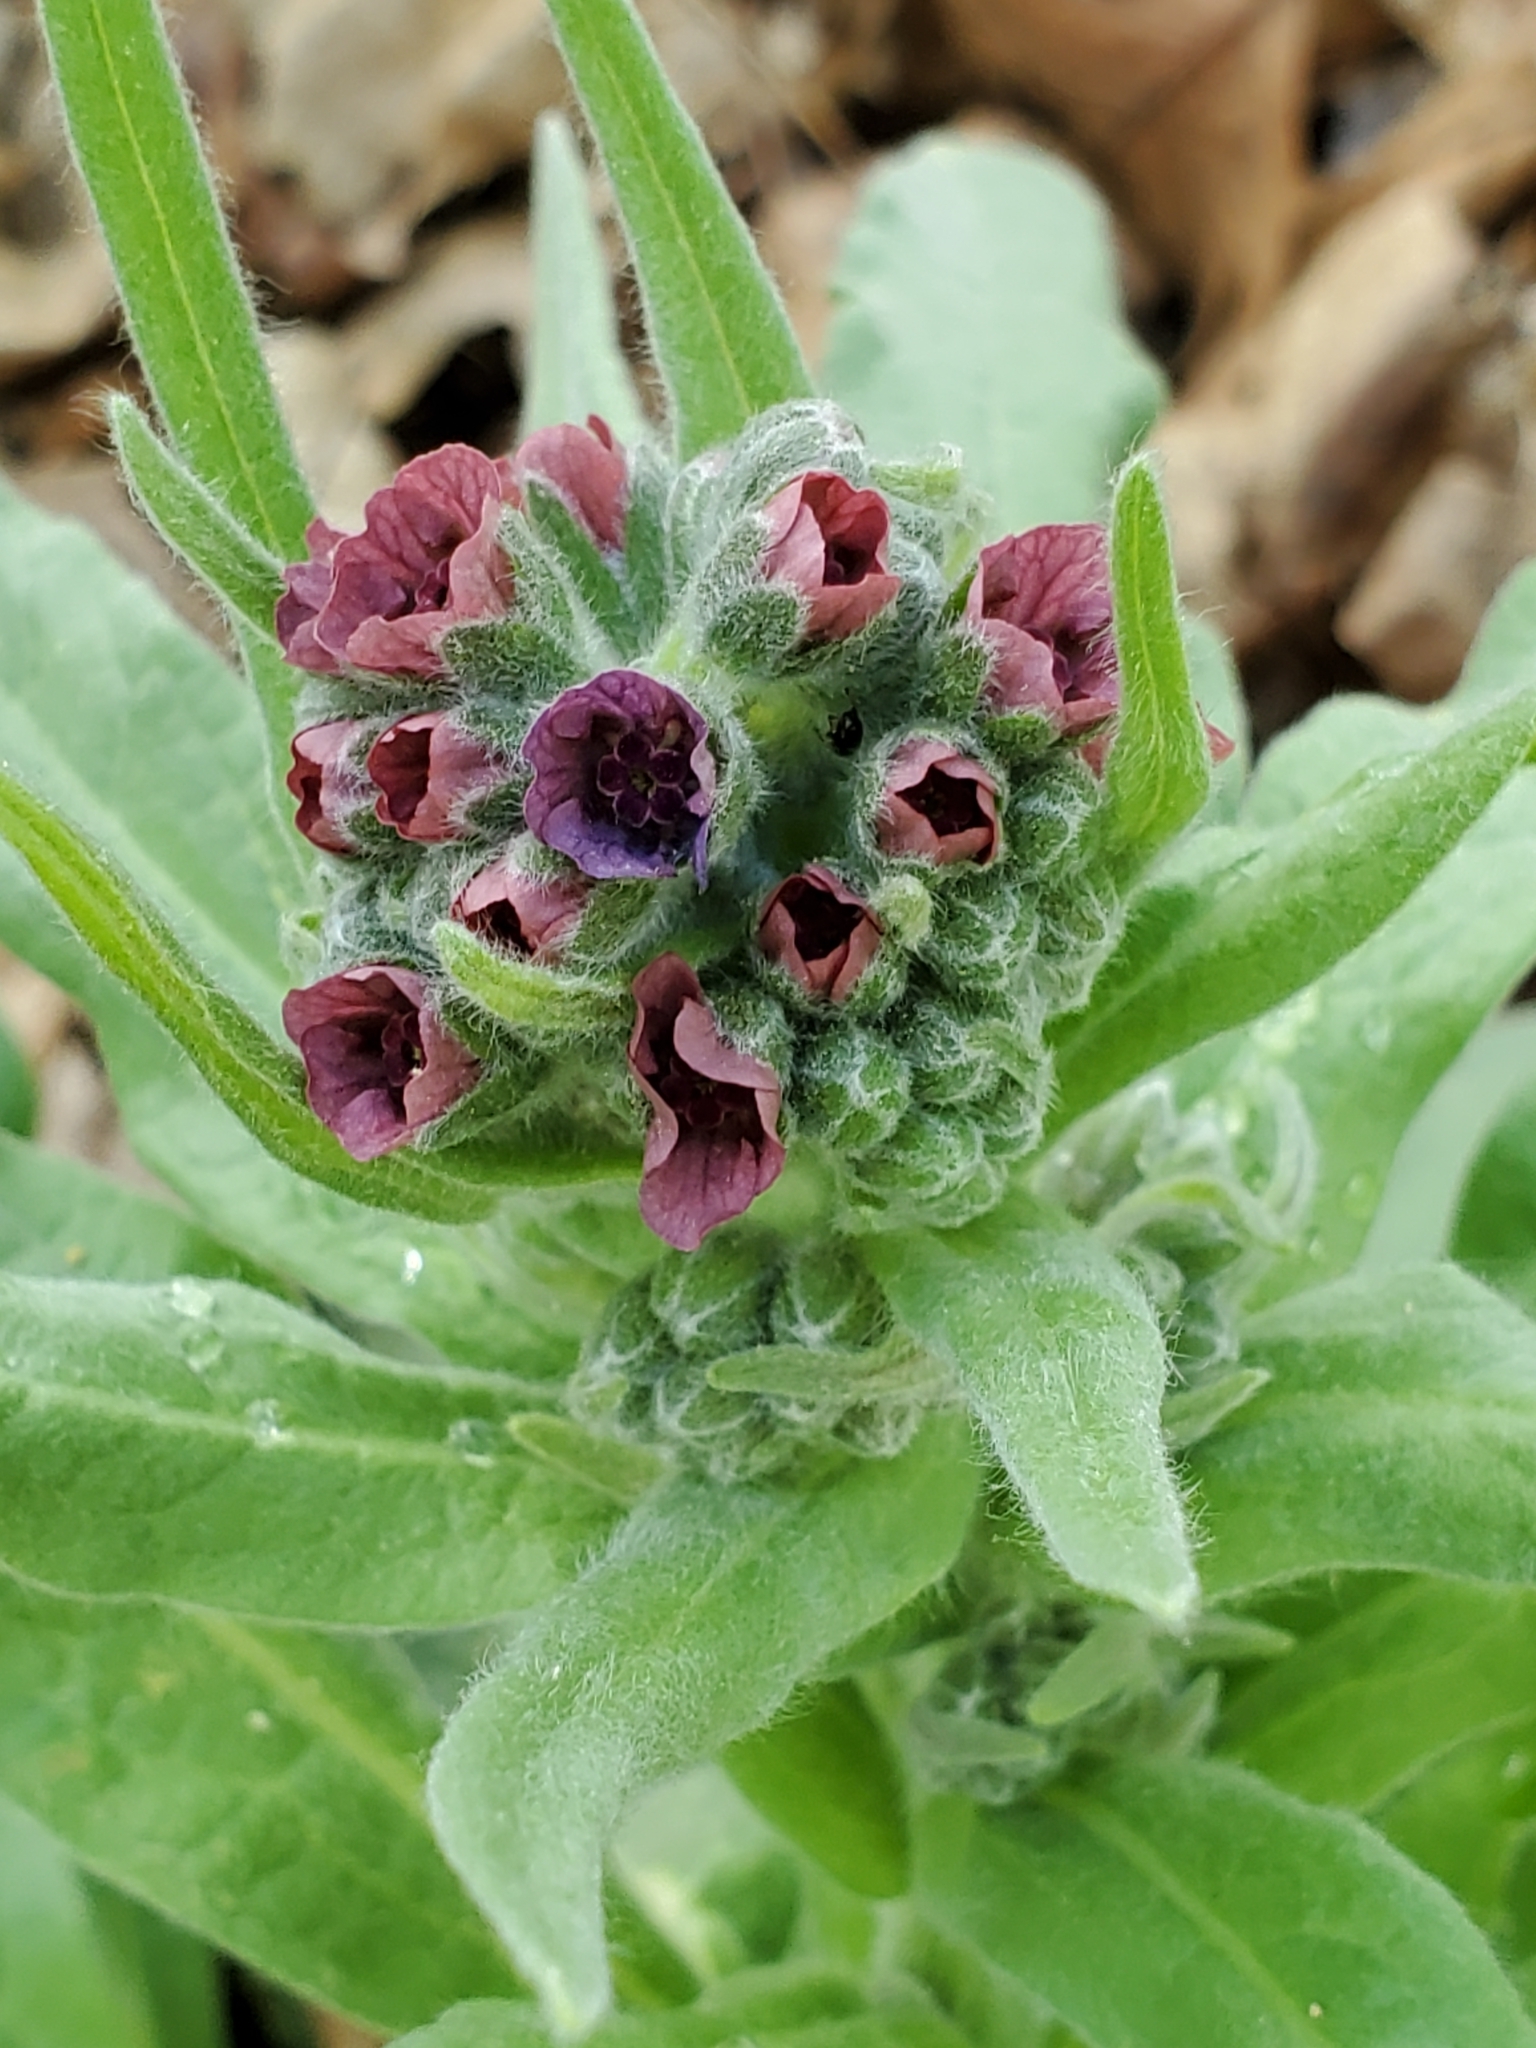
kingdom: Plantae
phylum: Tracheophyta
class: Magnoliopsida
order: Boraginales
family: Boraginaceae
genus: Cynoglossum
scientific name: Cynoglossum officinale
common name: Hound's-tongue
